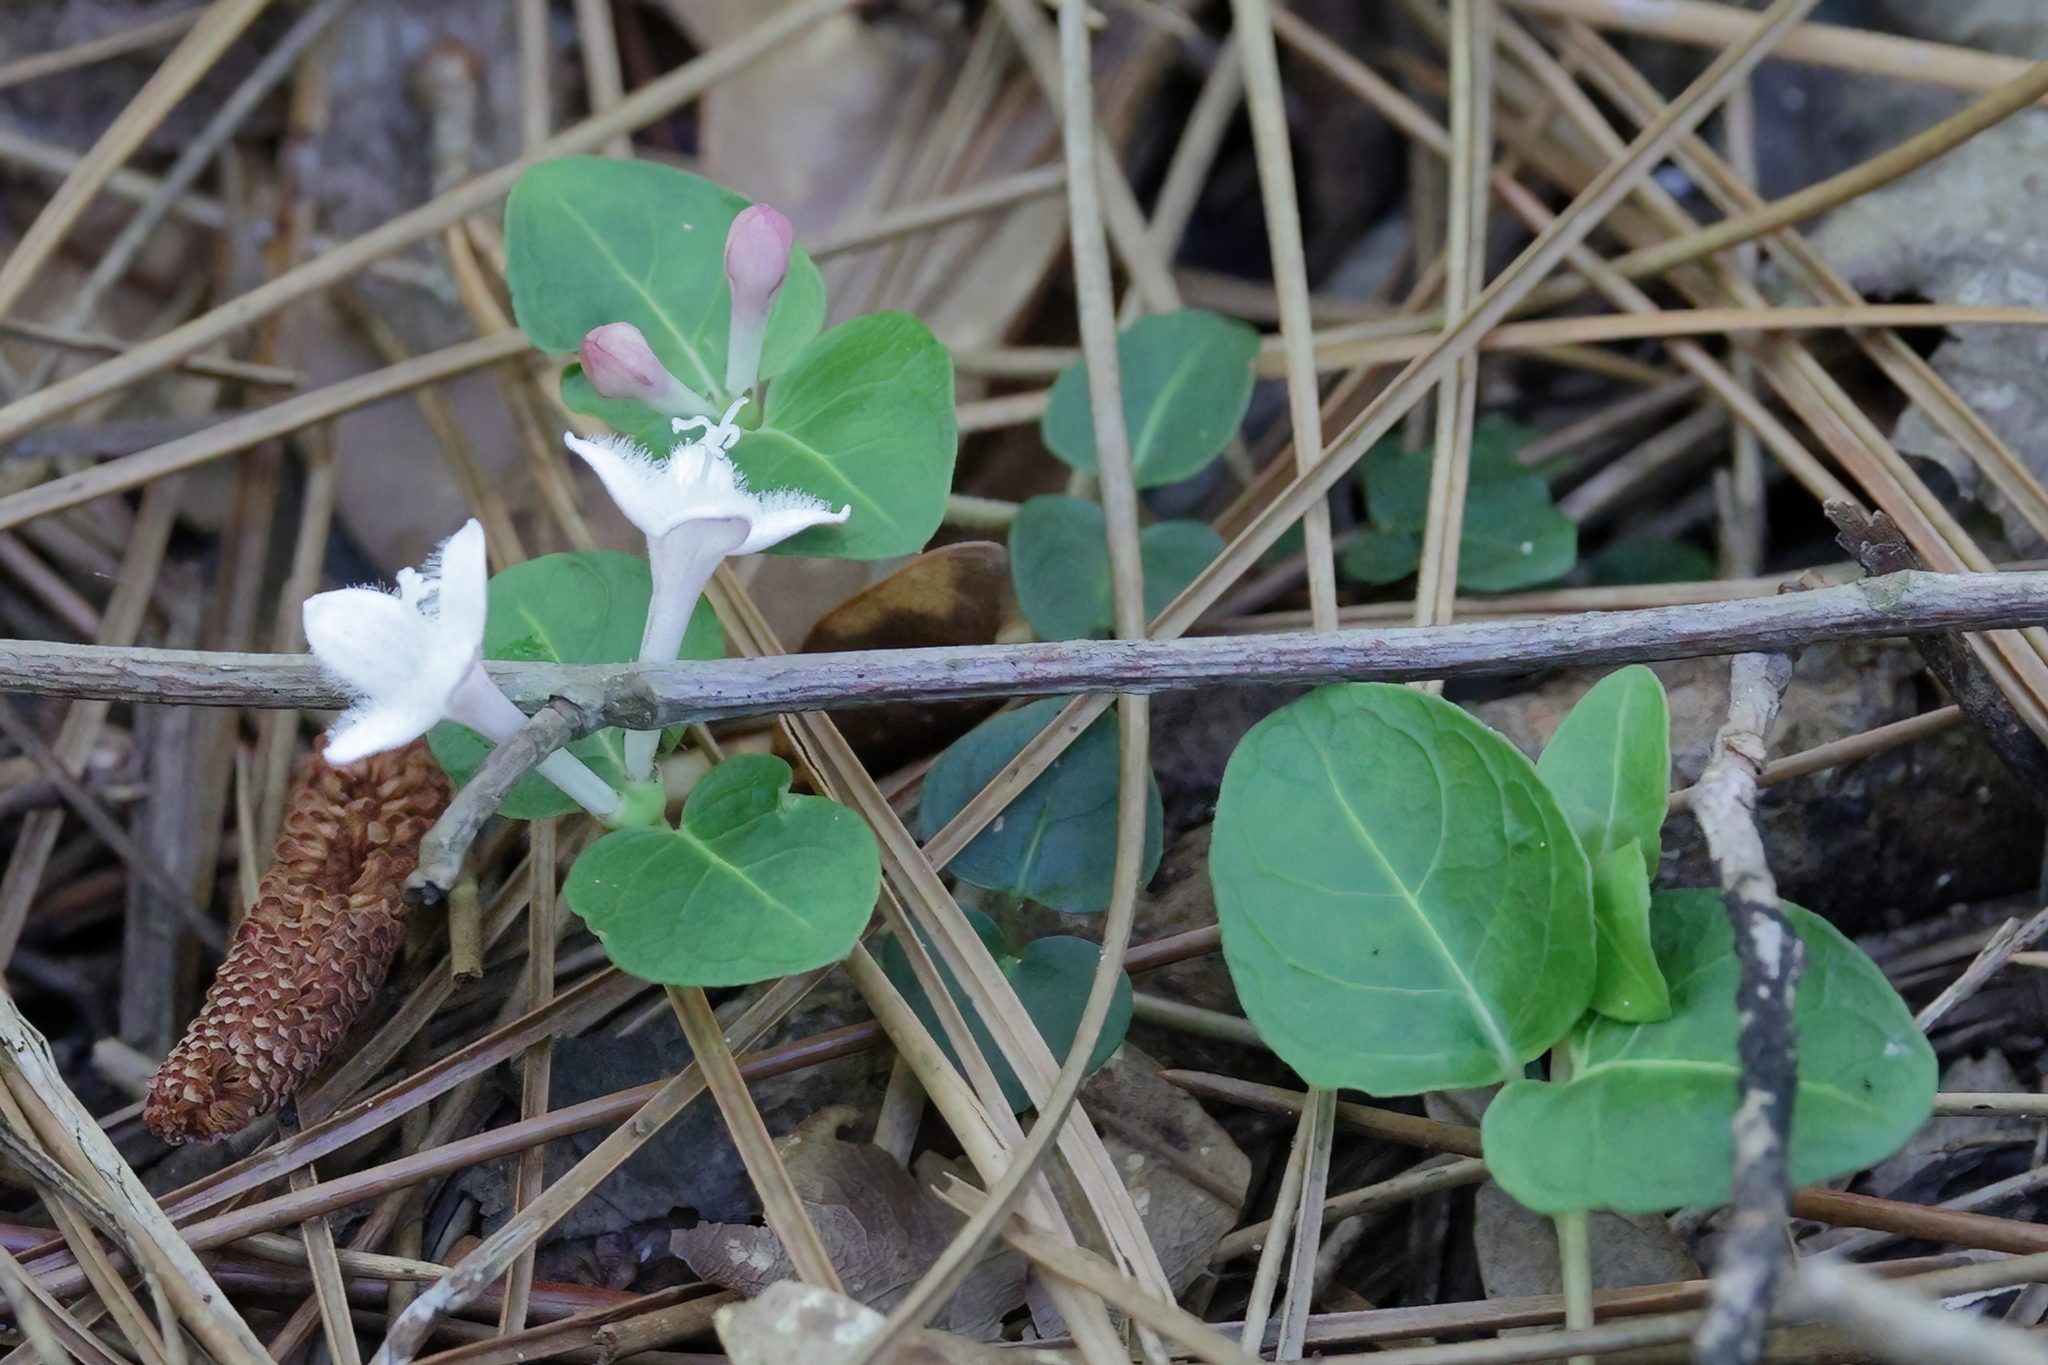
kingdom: Plantae
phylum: Tracheophyta
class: Magnoliopsida
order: Gentianales
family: Rubiaceae
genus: Mitchella
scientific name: Mitchella repens
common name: Partridge-berry
